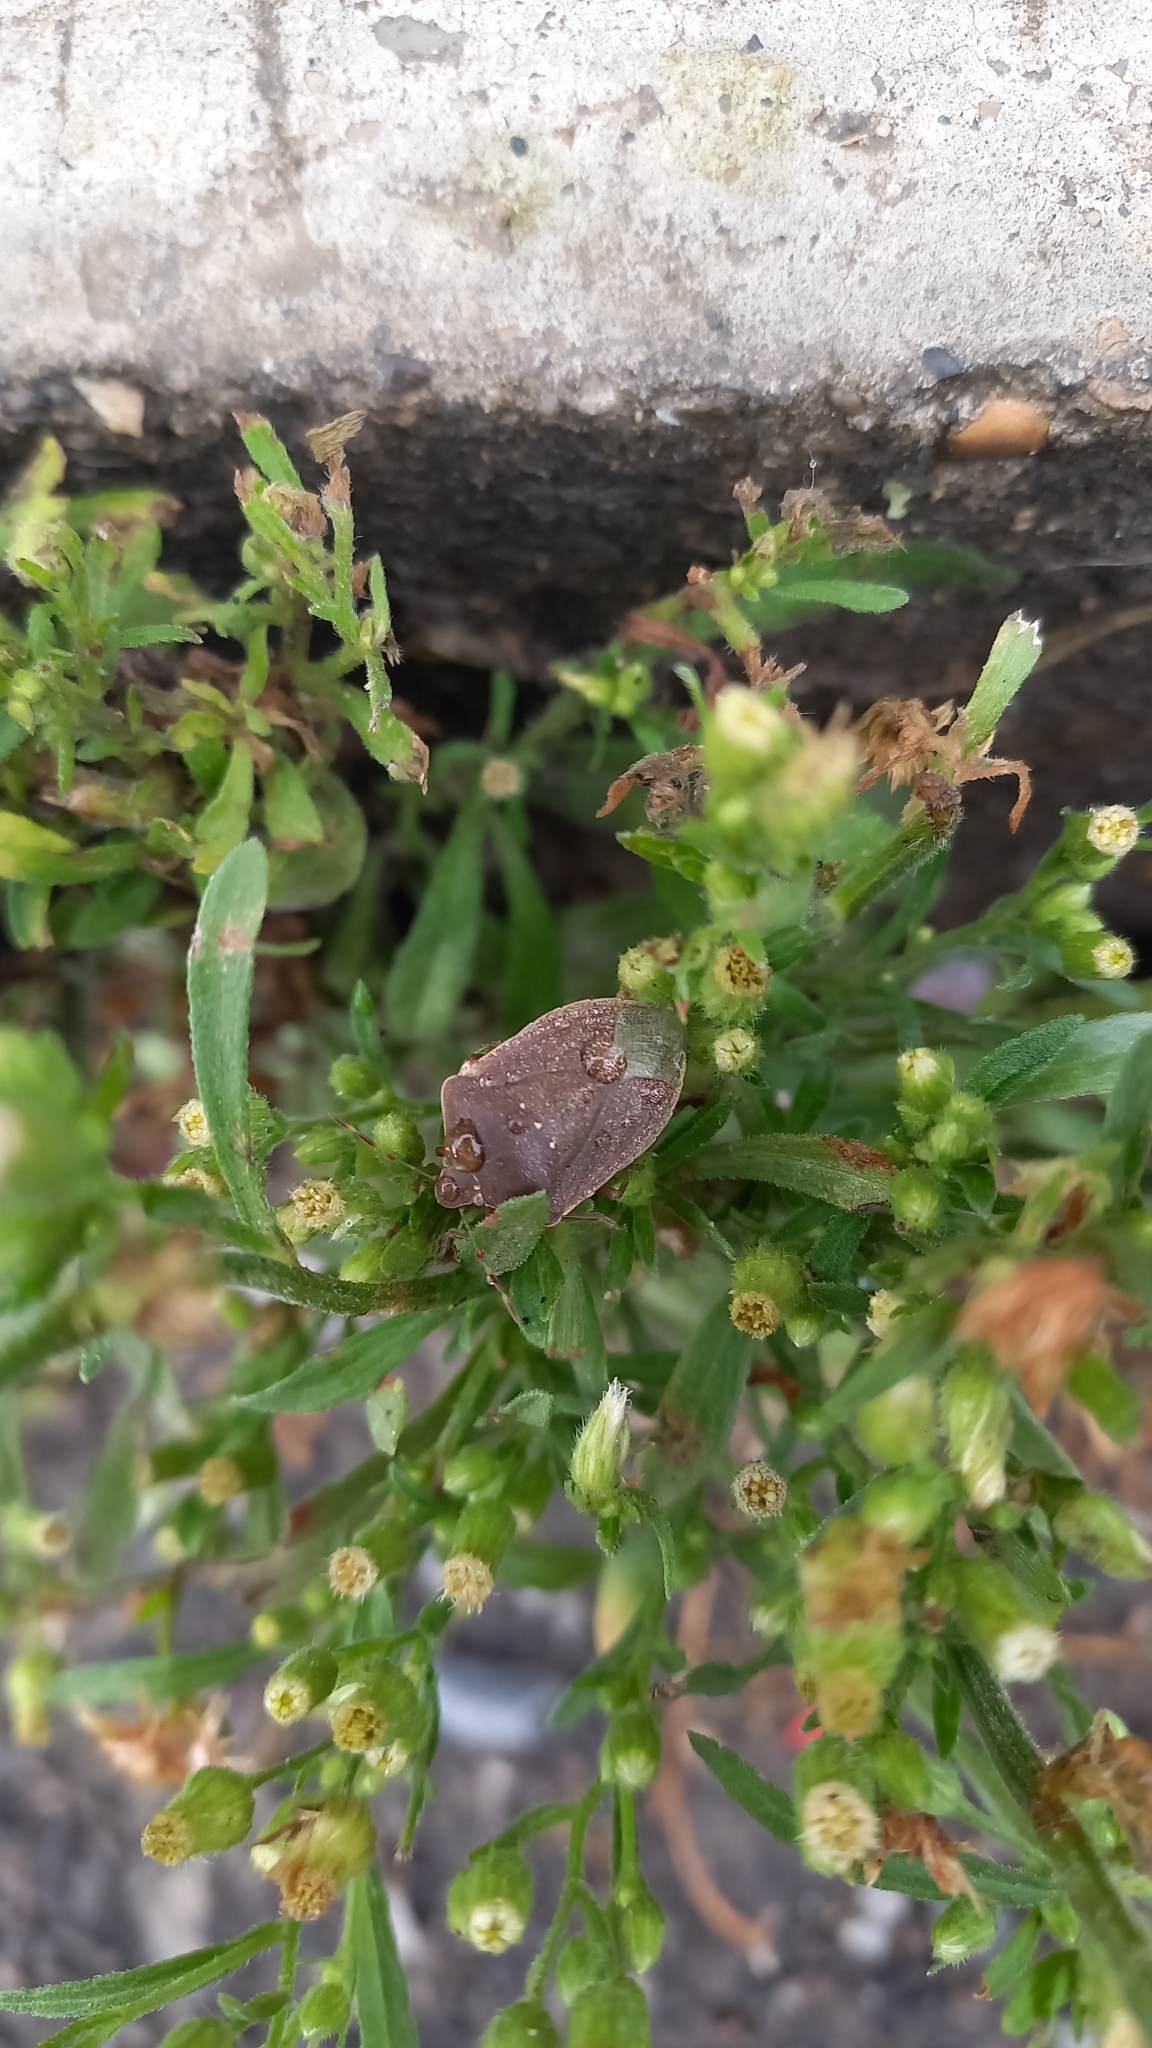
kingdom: Animalia
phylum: Arthropoda
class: Insecta
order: Hemiptera
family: Pentatomidae
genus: Nezara
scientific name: Nezara viridula
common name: Southern green stink bug
